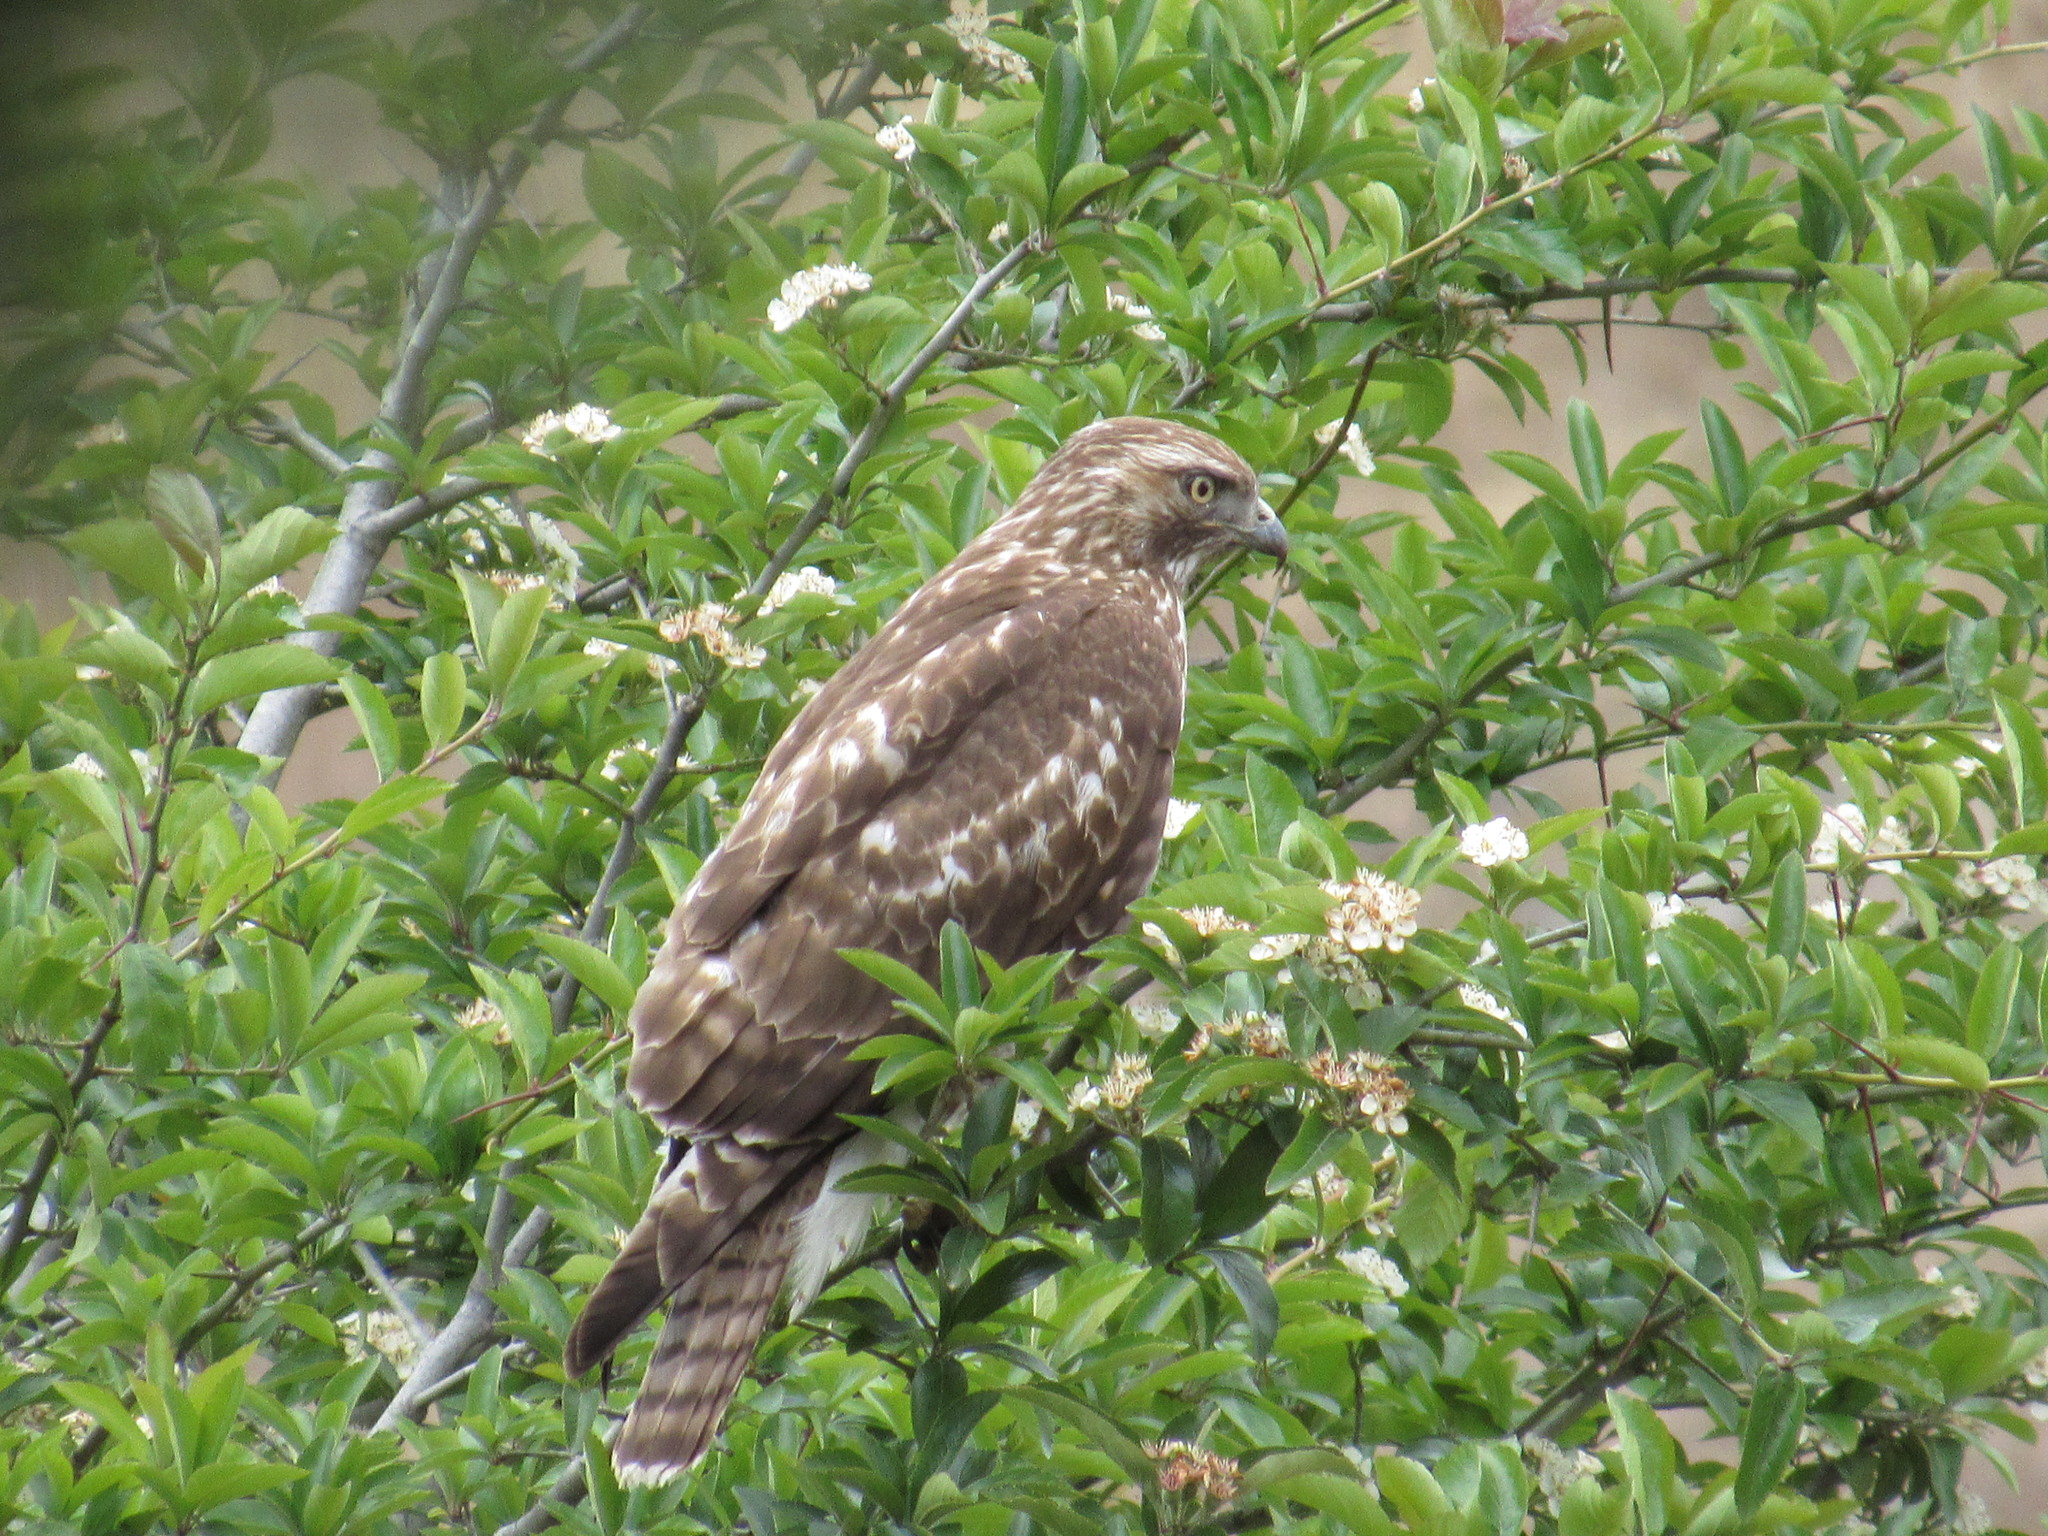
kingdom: Animalia
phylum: Chordata
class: Aves
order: Accipitriformes
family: Accipitridae
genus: Buteo
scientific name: Buteo jamaicensis
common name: Red-tailed hawk
